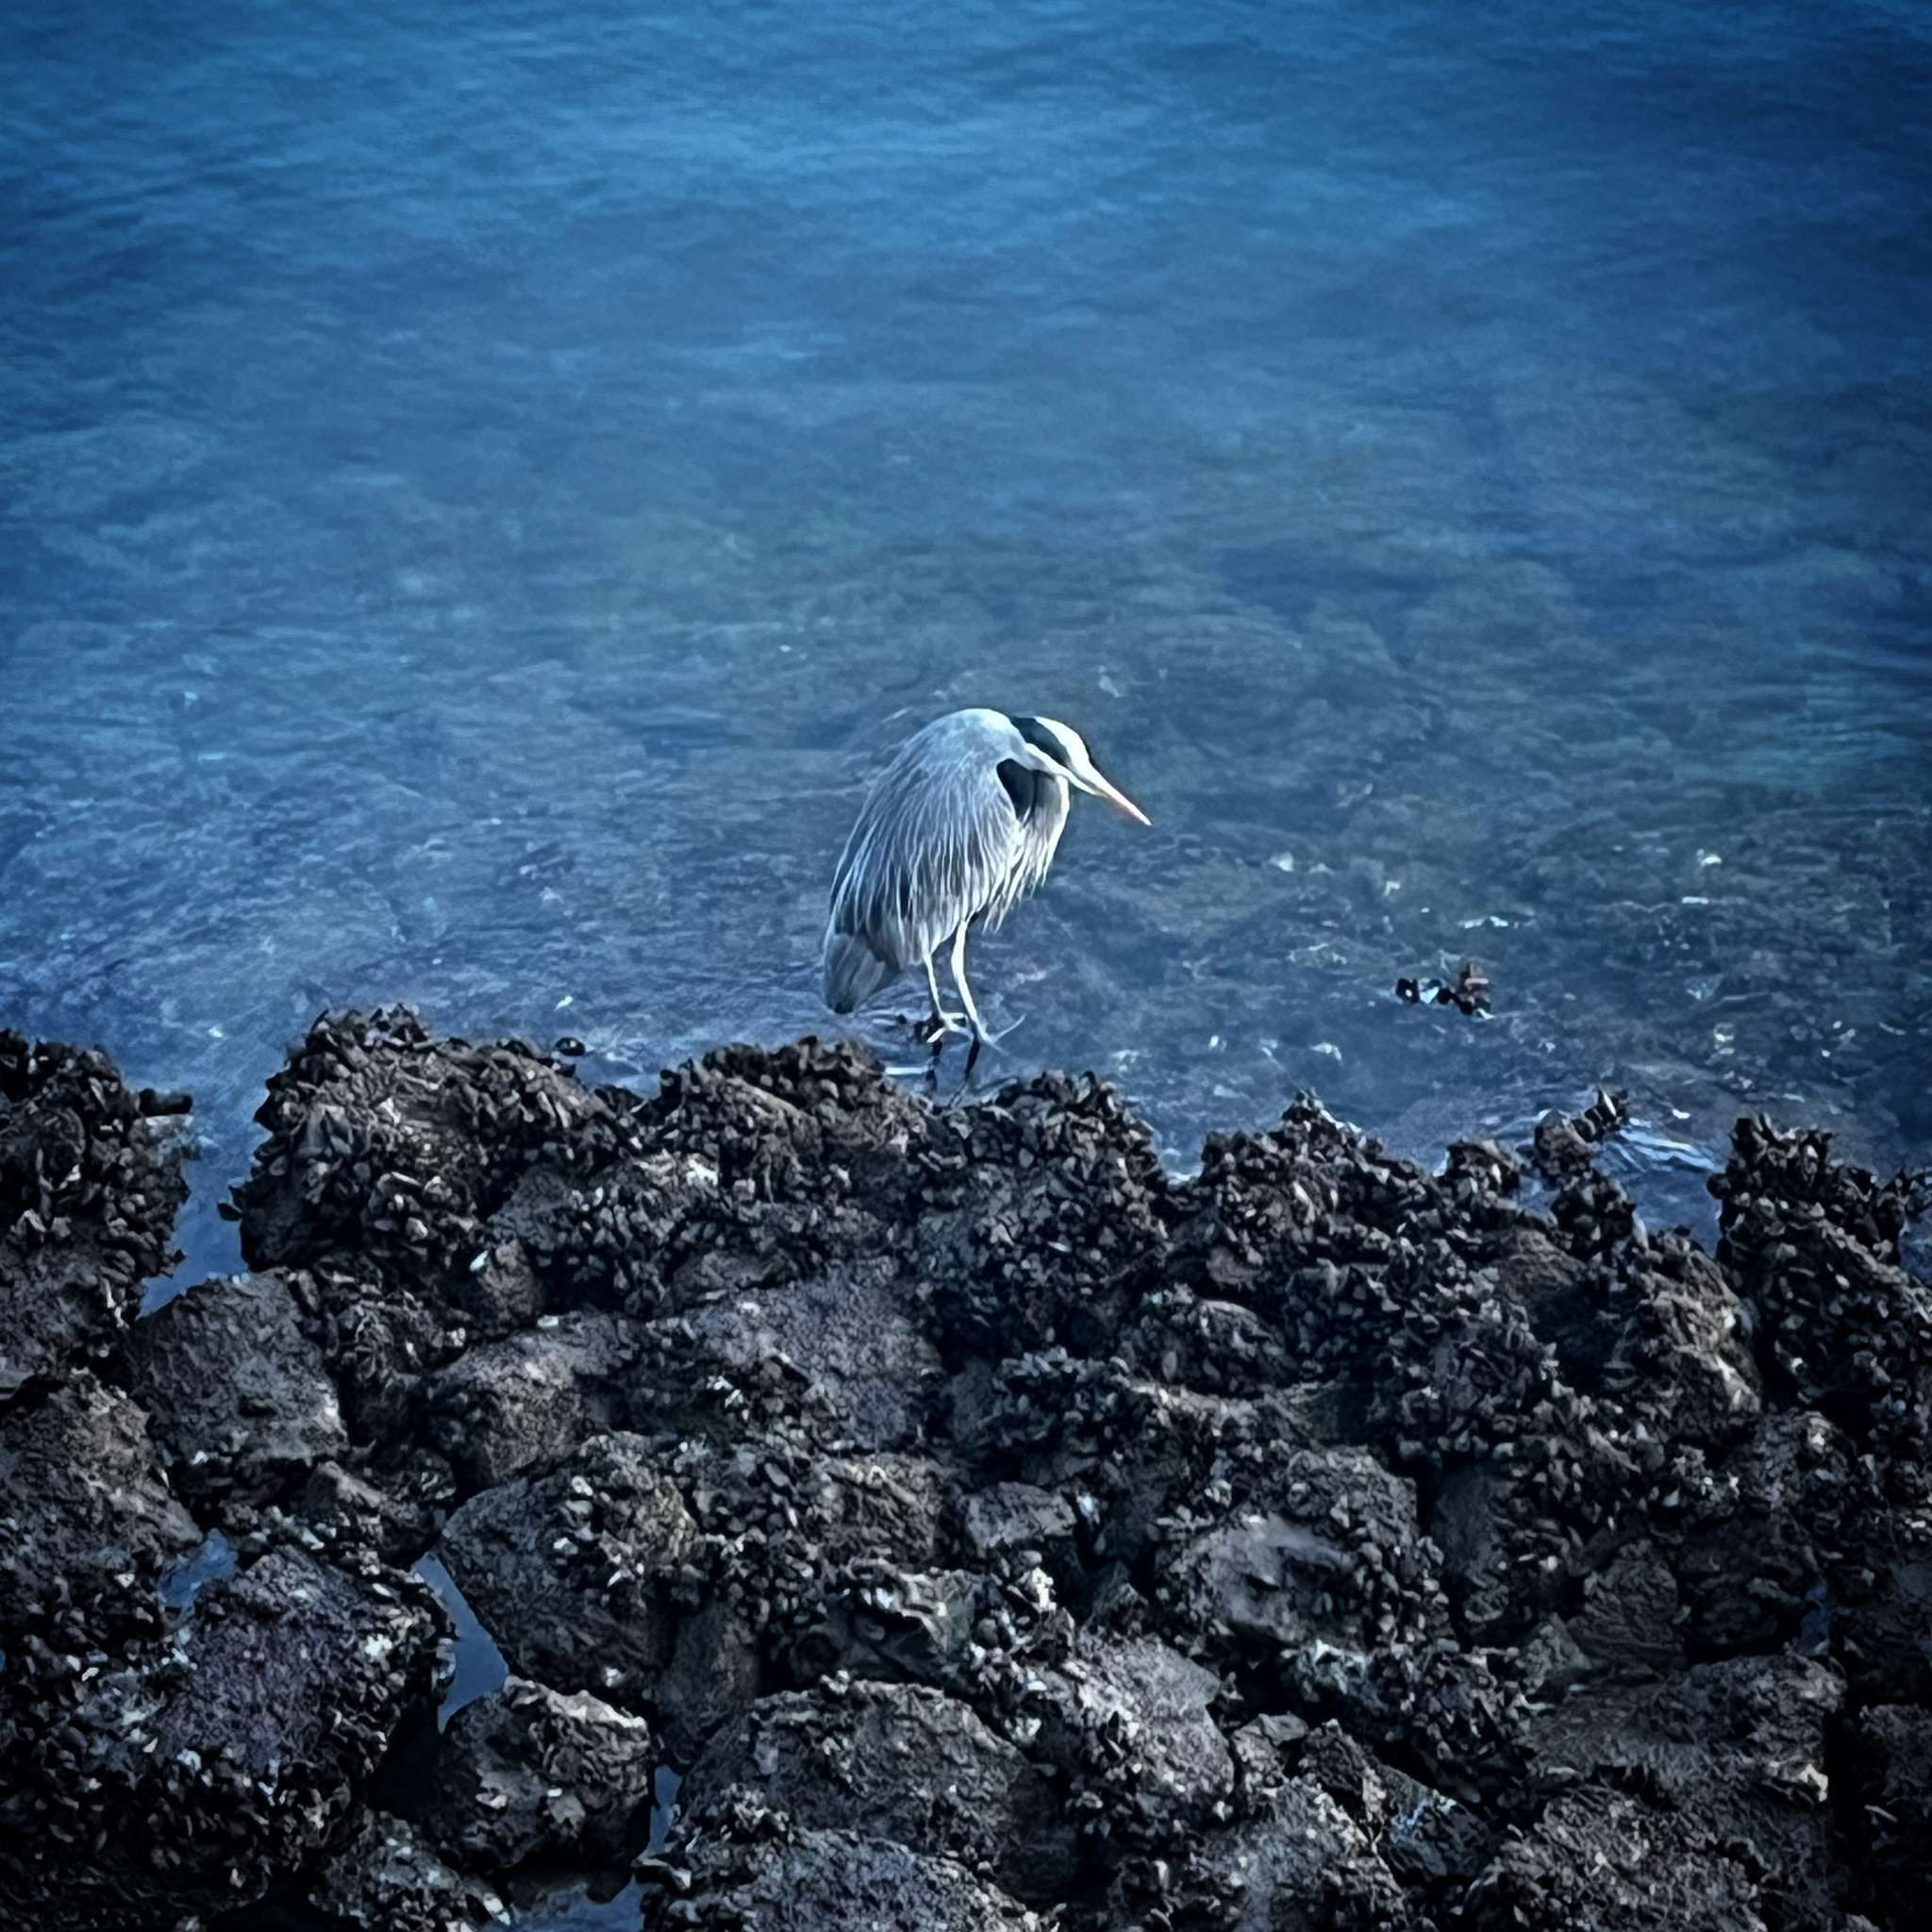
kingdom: Animalia
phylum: Chordata
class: Aves
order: Pelecaniformes
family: Ardeidae
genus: Ardea
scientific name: Ardea herodias
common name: Great blue heron
